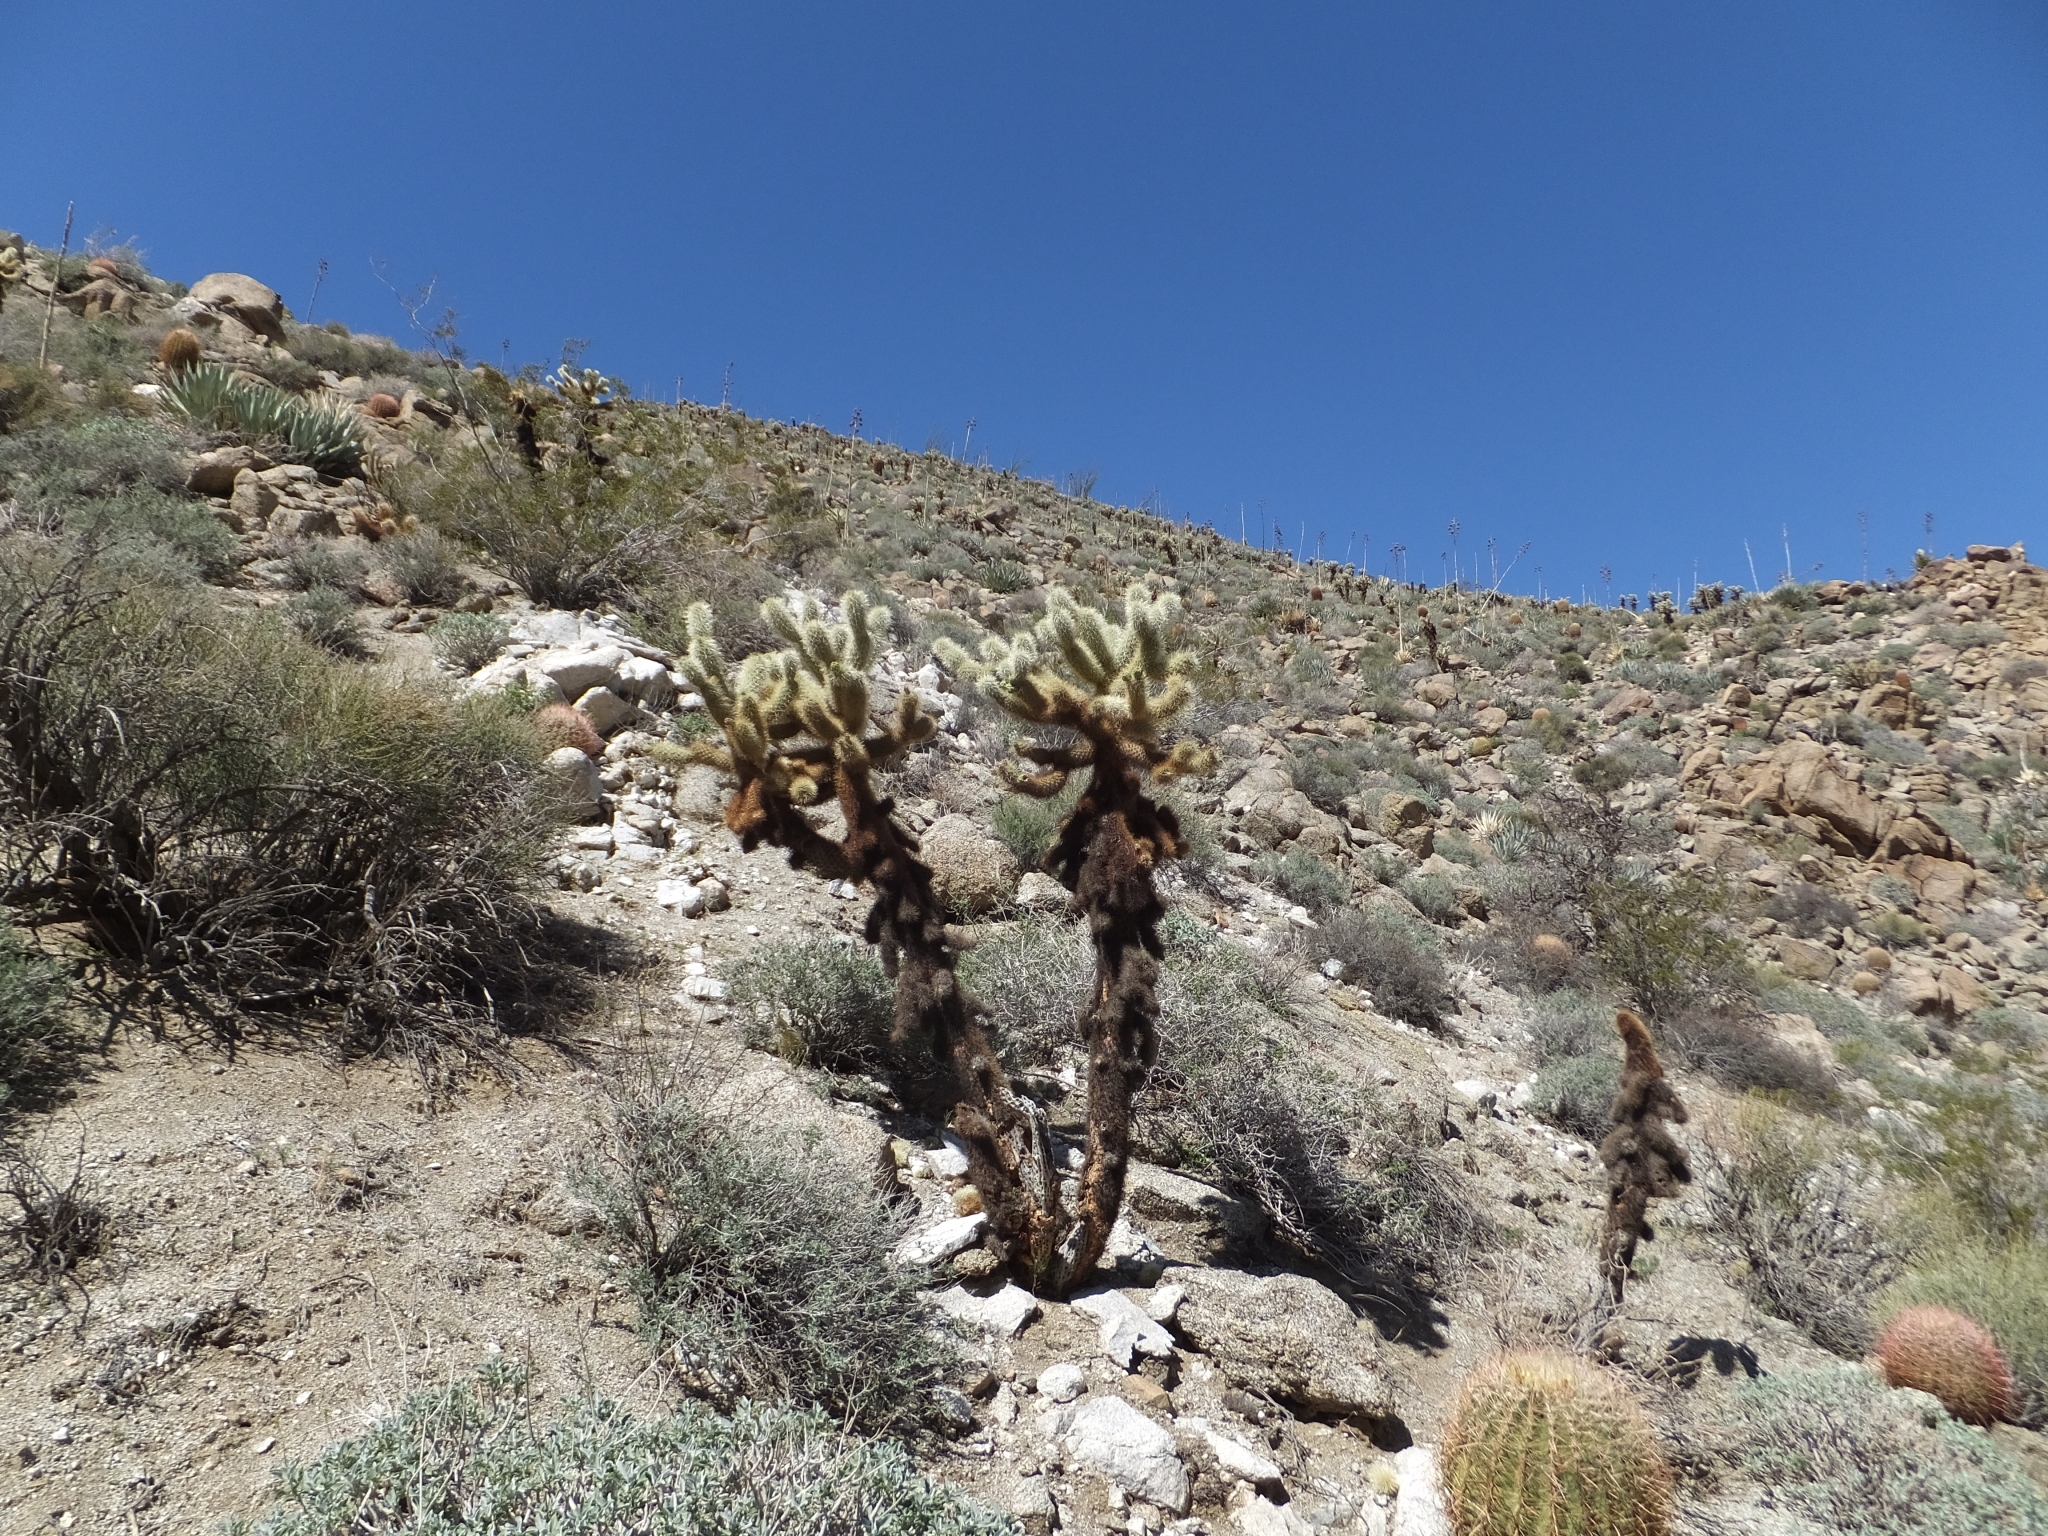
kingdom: Plantae
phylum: Tracheophyta
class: Magnoliopsida
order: Caryophyllales
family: Cactaceae
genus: Cylindropuntia
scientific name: Cylindropuntia fosbergii
